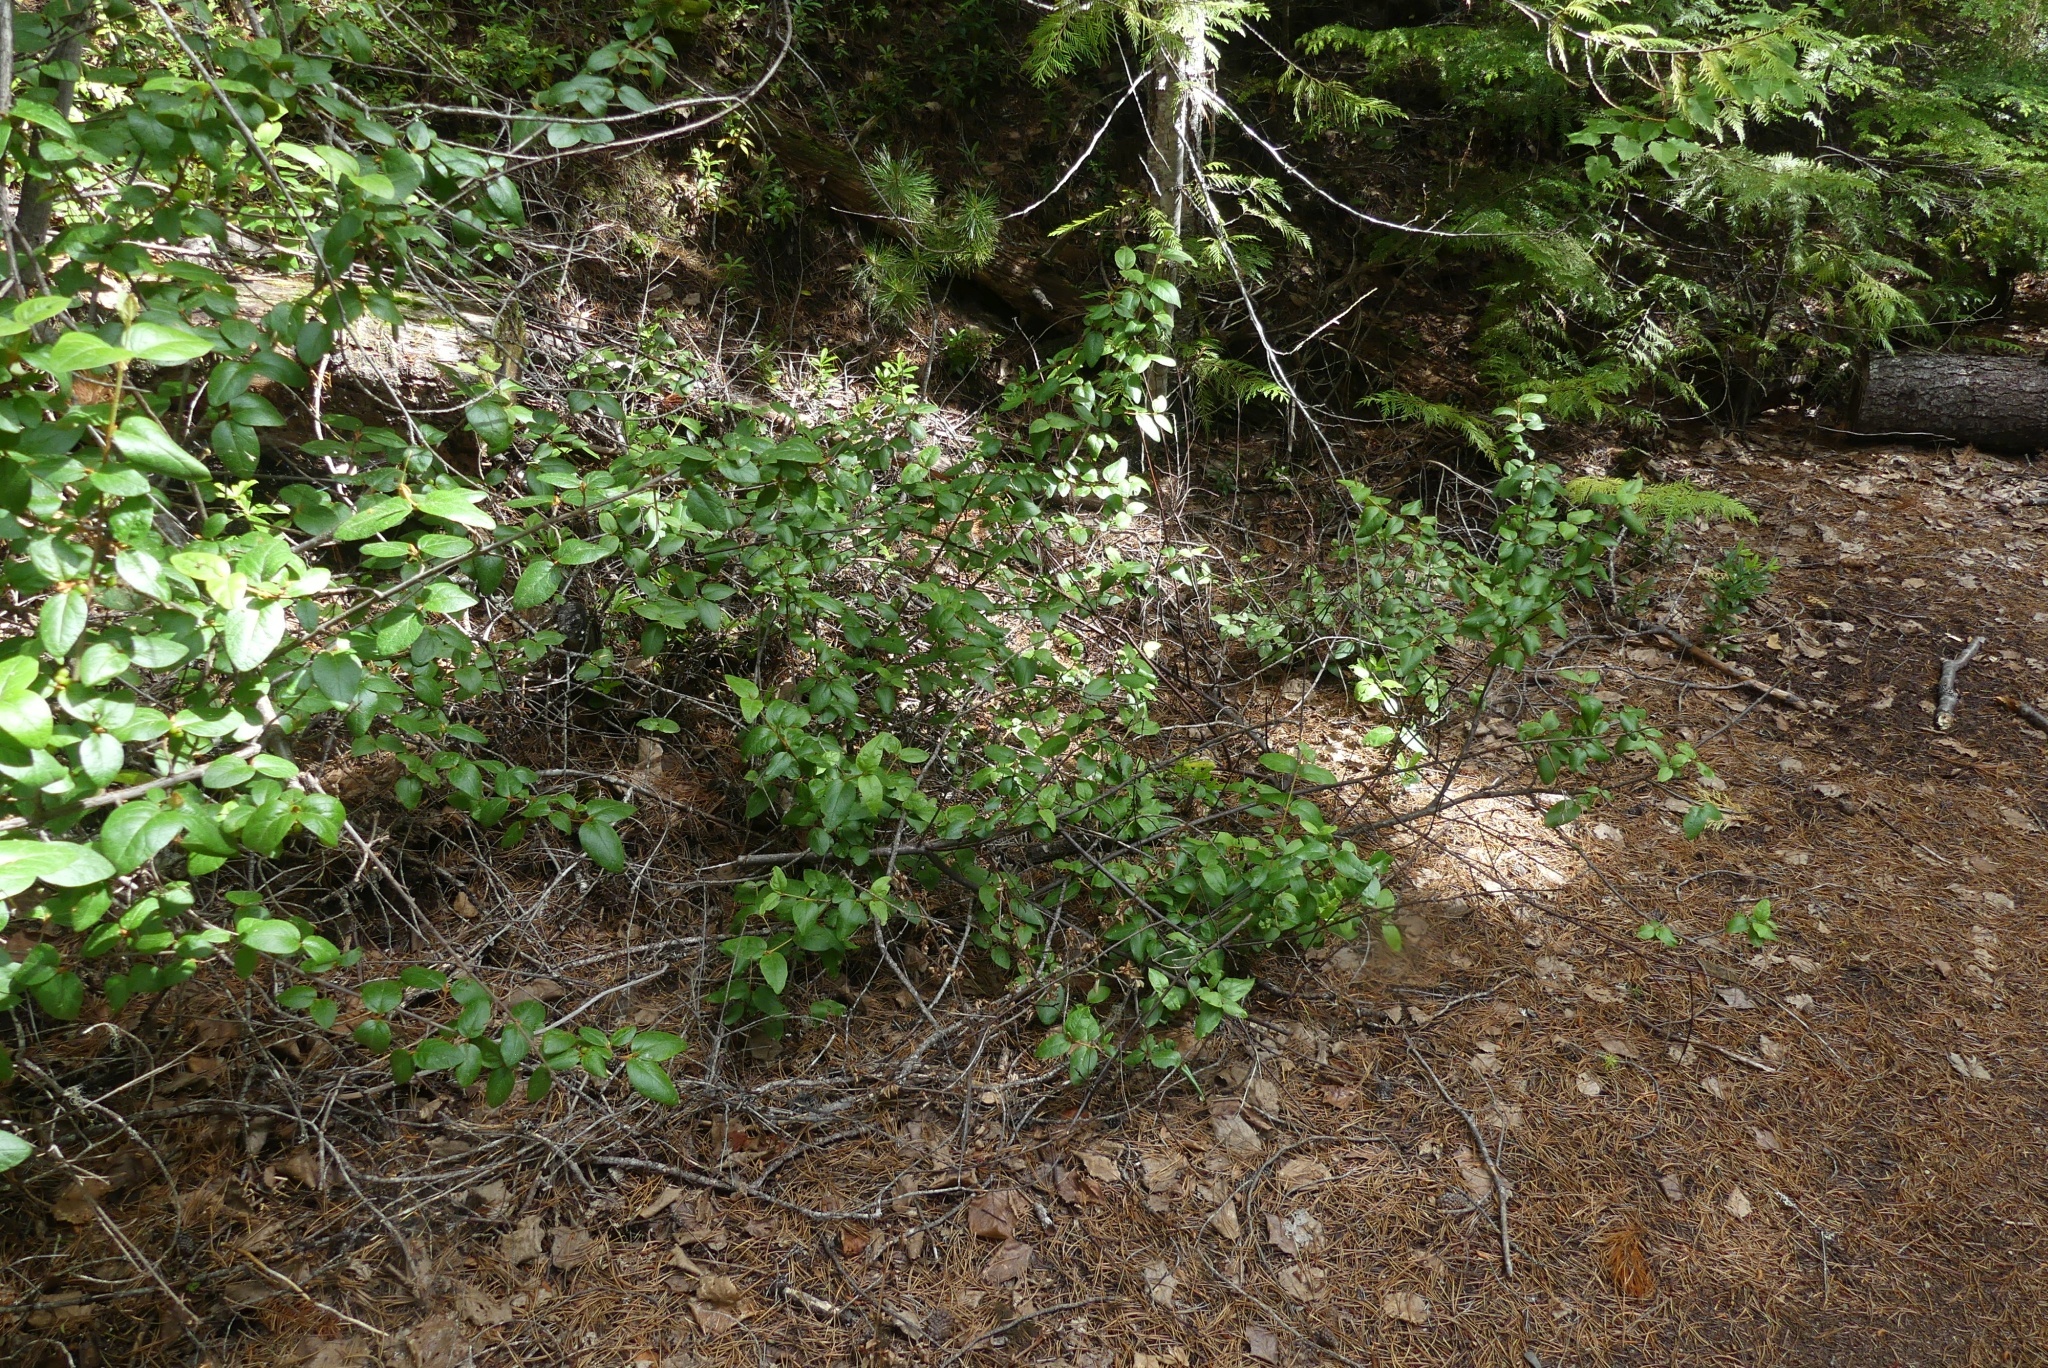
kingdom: Plantae
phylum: Tracheophyta
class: Magnoliopsida
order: Rosales
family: Elaeagnaceae
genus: Shepherdia
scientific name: Shepherdia canadensis
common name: Soapberry
